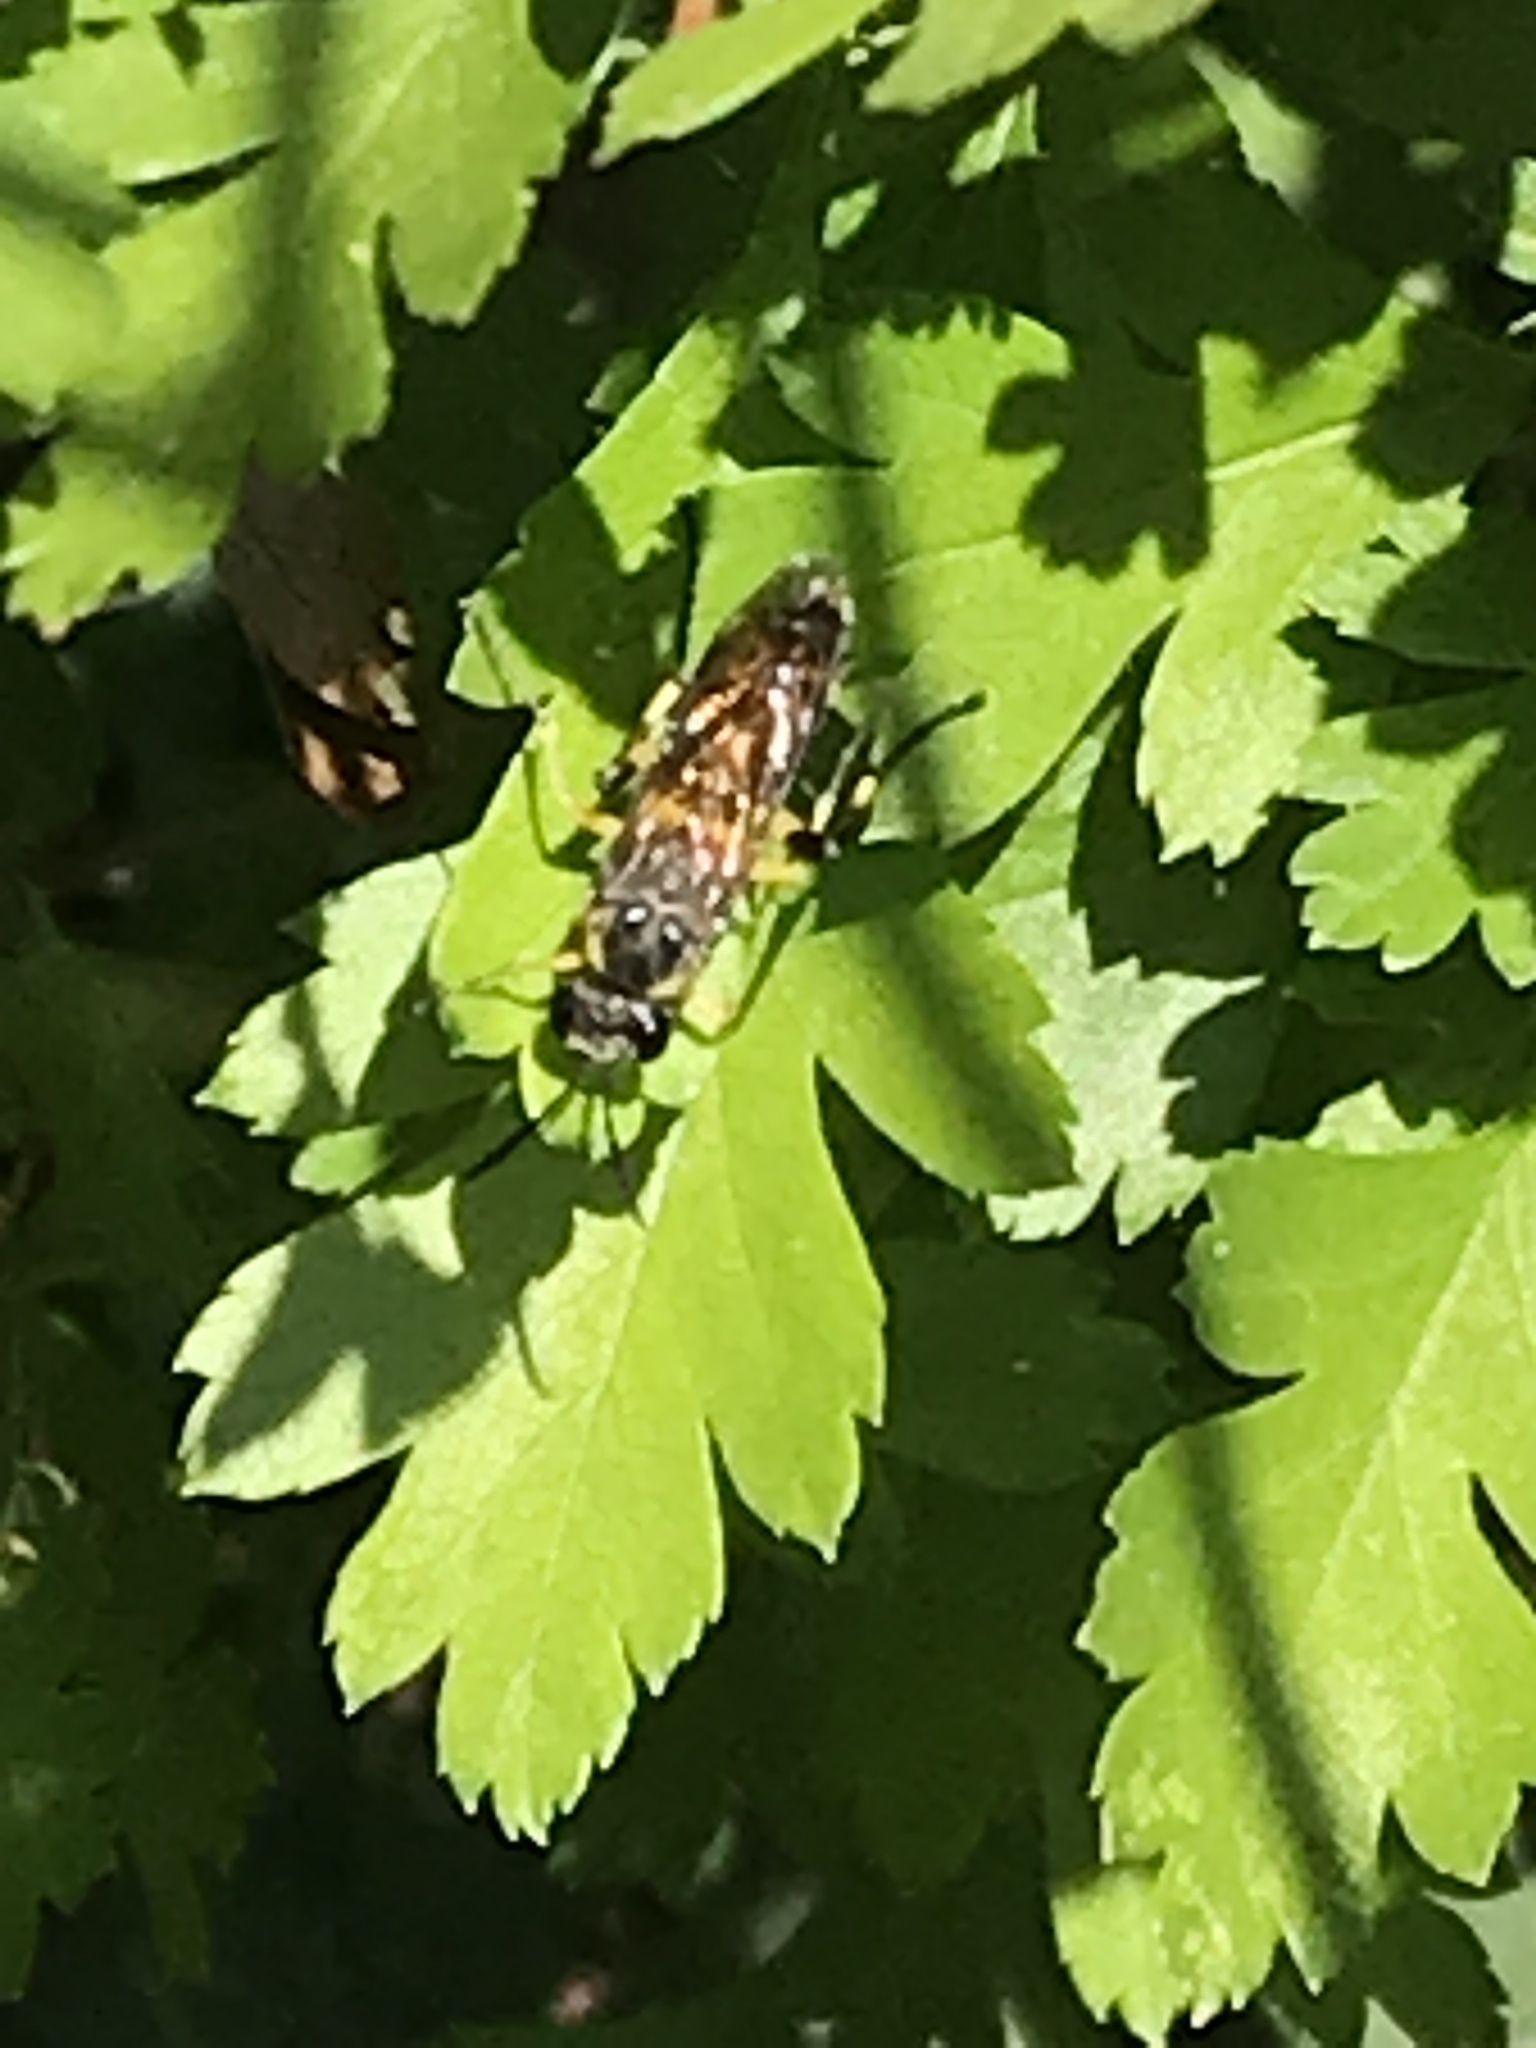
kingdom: Animalia
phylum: Arthropoda
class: Insecta
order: Hymenoptera
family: Tenthredinidae
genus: Macrophya
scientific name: Macrophya montana
